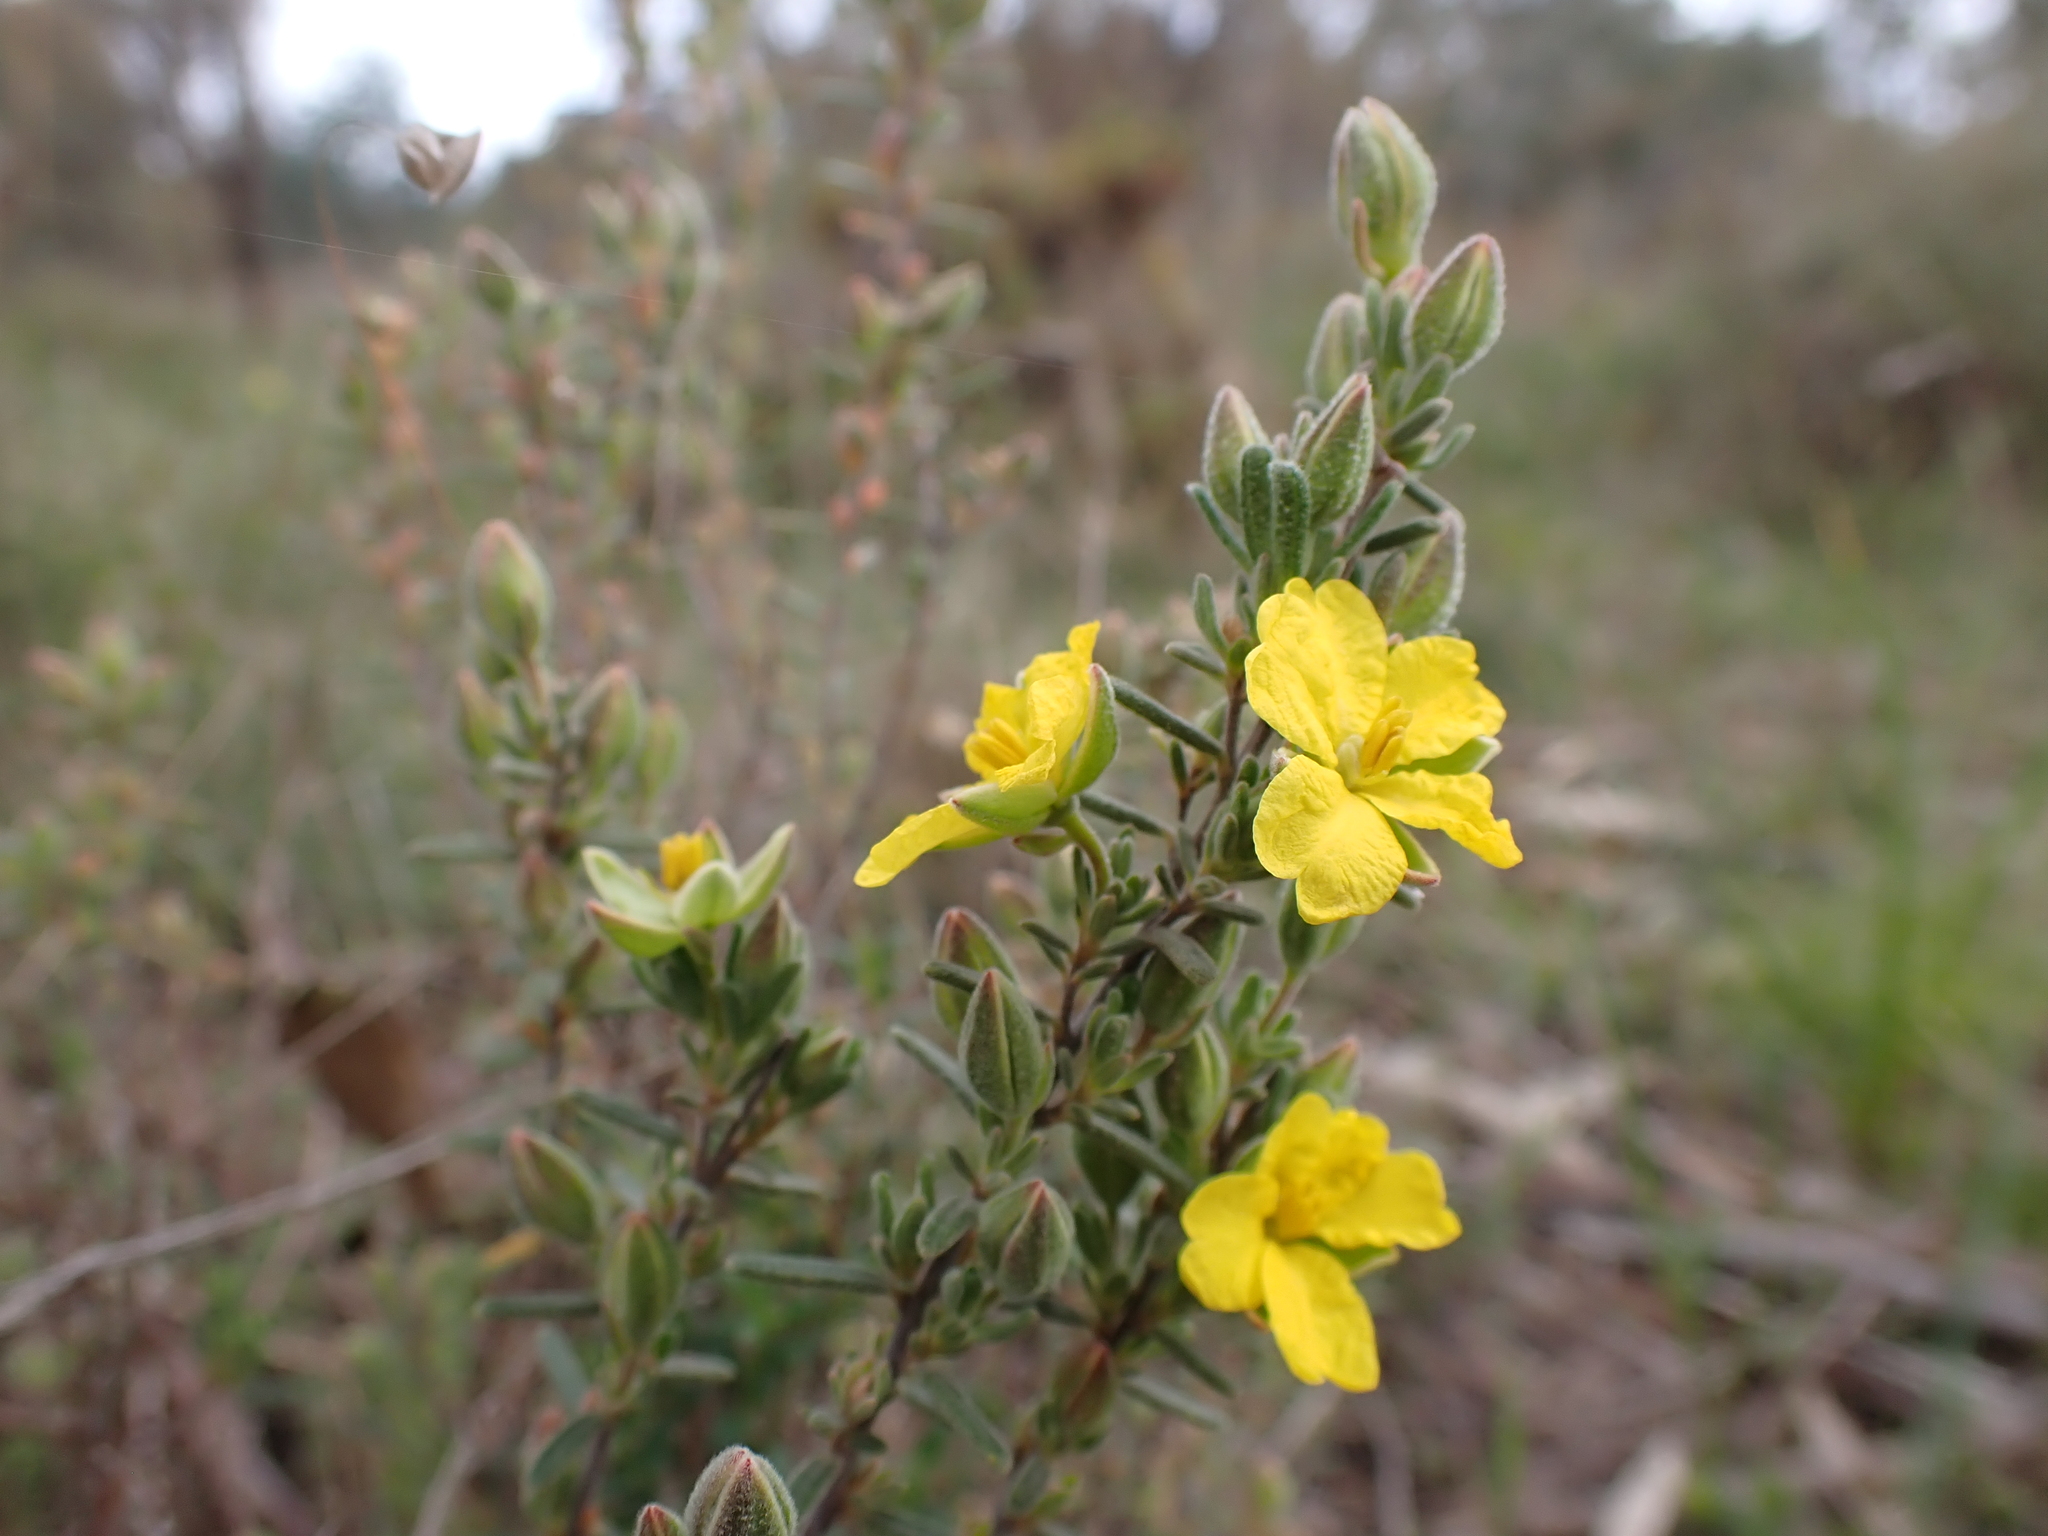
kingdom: Plantae
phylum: Tracheophyta
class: Magnoliopsida
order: Dilleniales
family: Dilleniaceae
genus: Hibbertia
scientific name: Hibbertia australis
